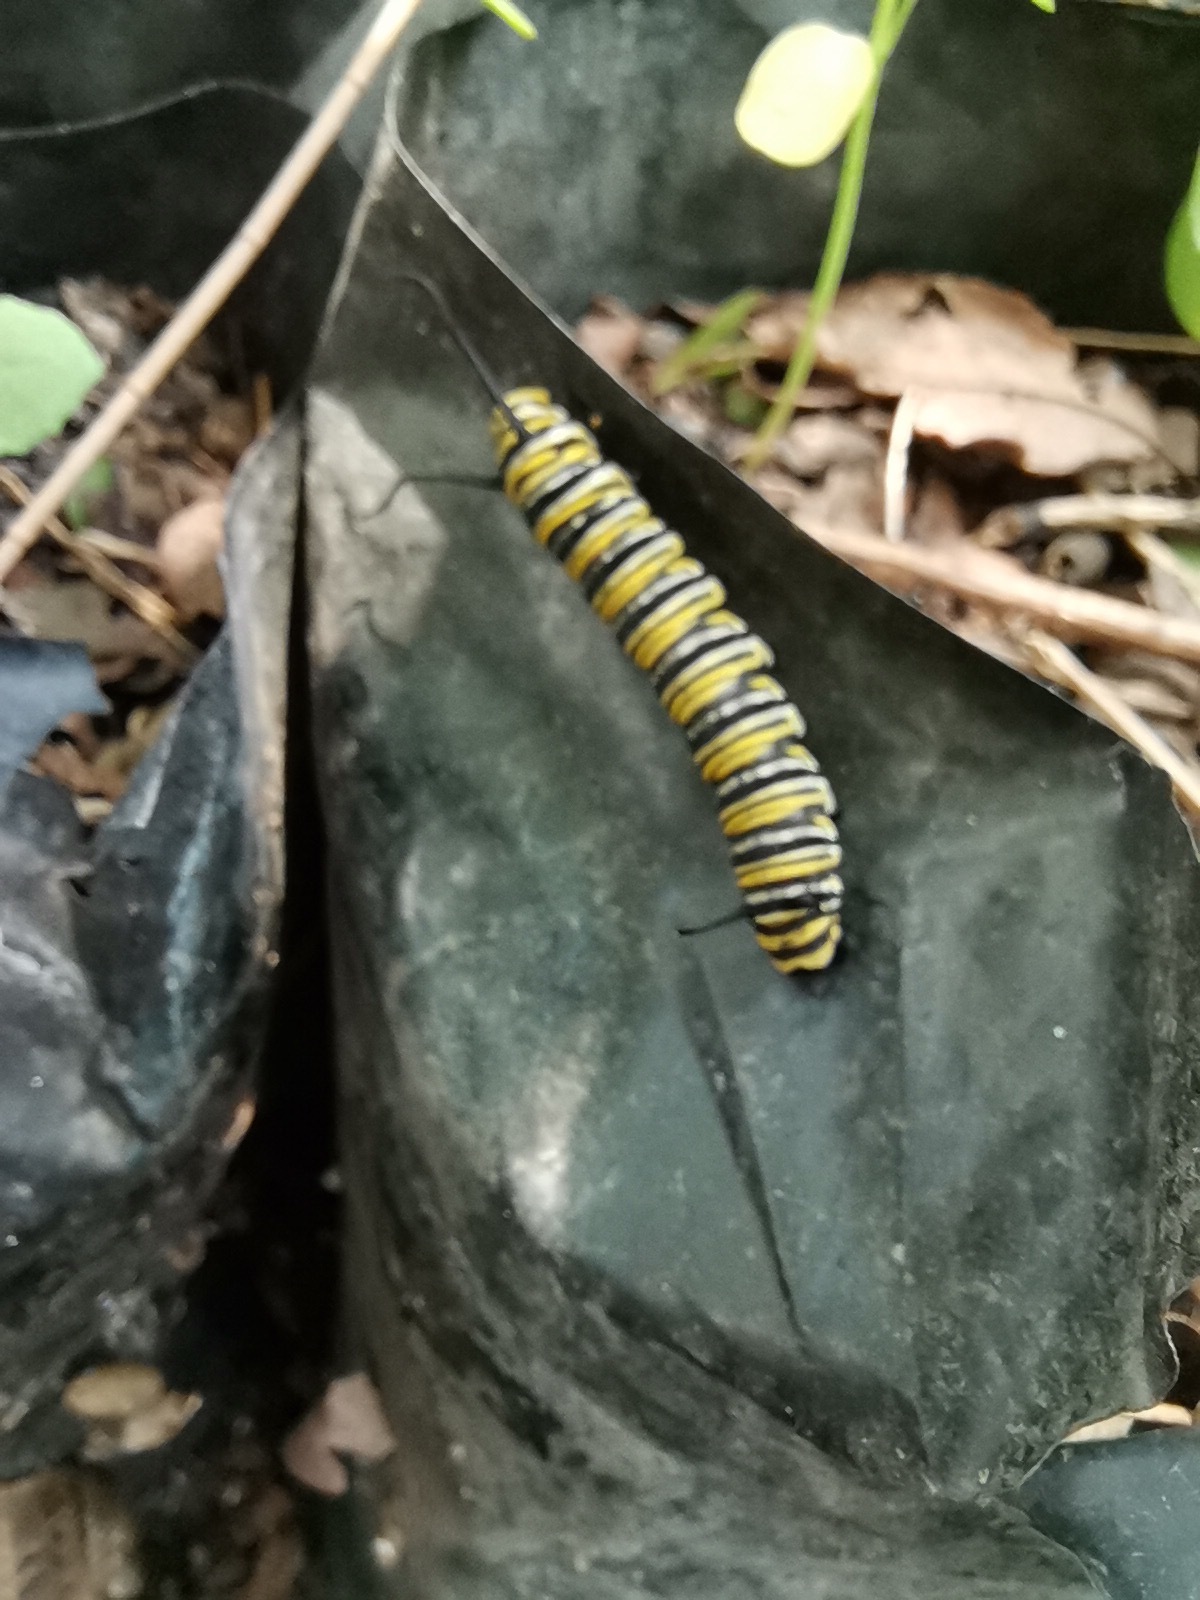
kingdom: Animalia
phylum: Arthropoda
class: Insecta
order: Lepidoptera
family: Nymphalidae
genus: Danaus
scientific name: Danaus plexippus
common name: Monarch
